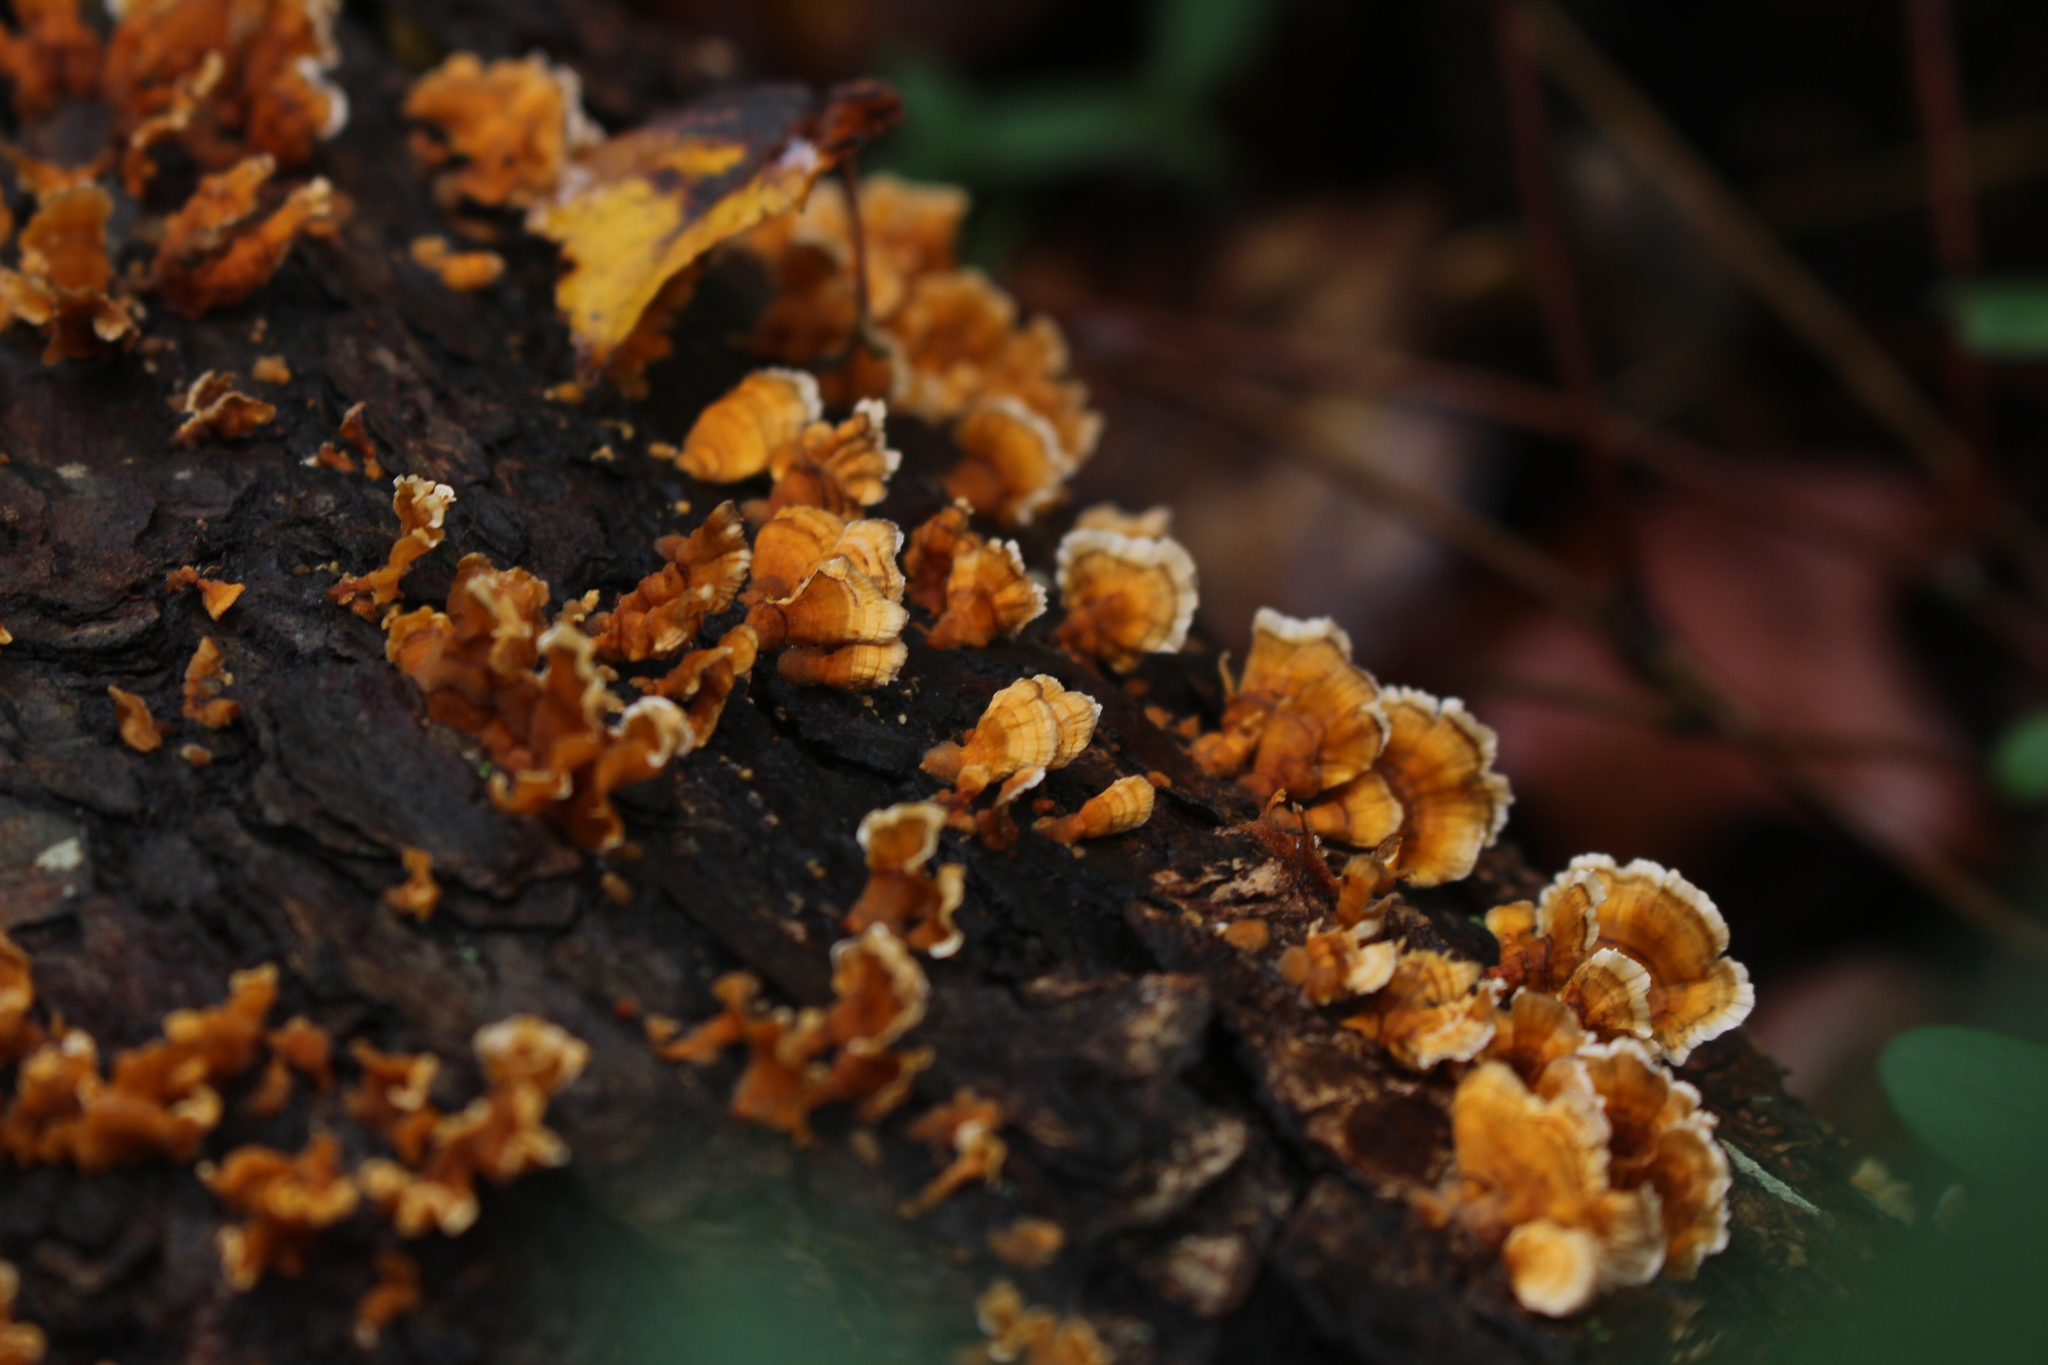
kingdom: Fungi
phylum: Basidiomycota
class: Agaricomycetes
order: Russulales
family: Stereaceae
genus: Stereum
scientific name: Stereum complicatum
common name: Crowded parchment
